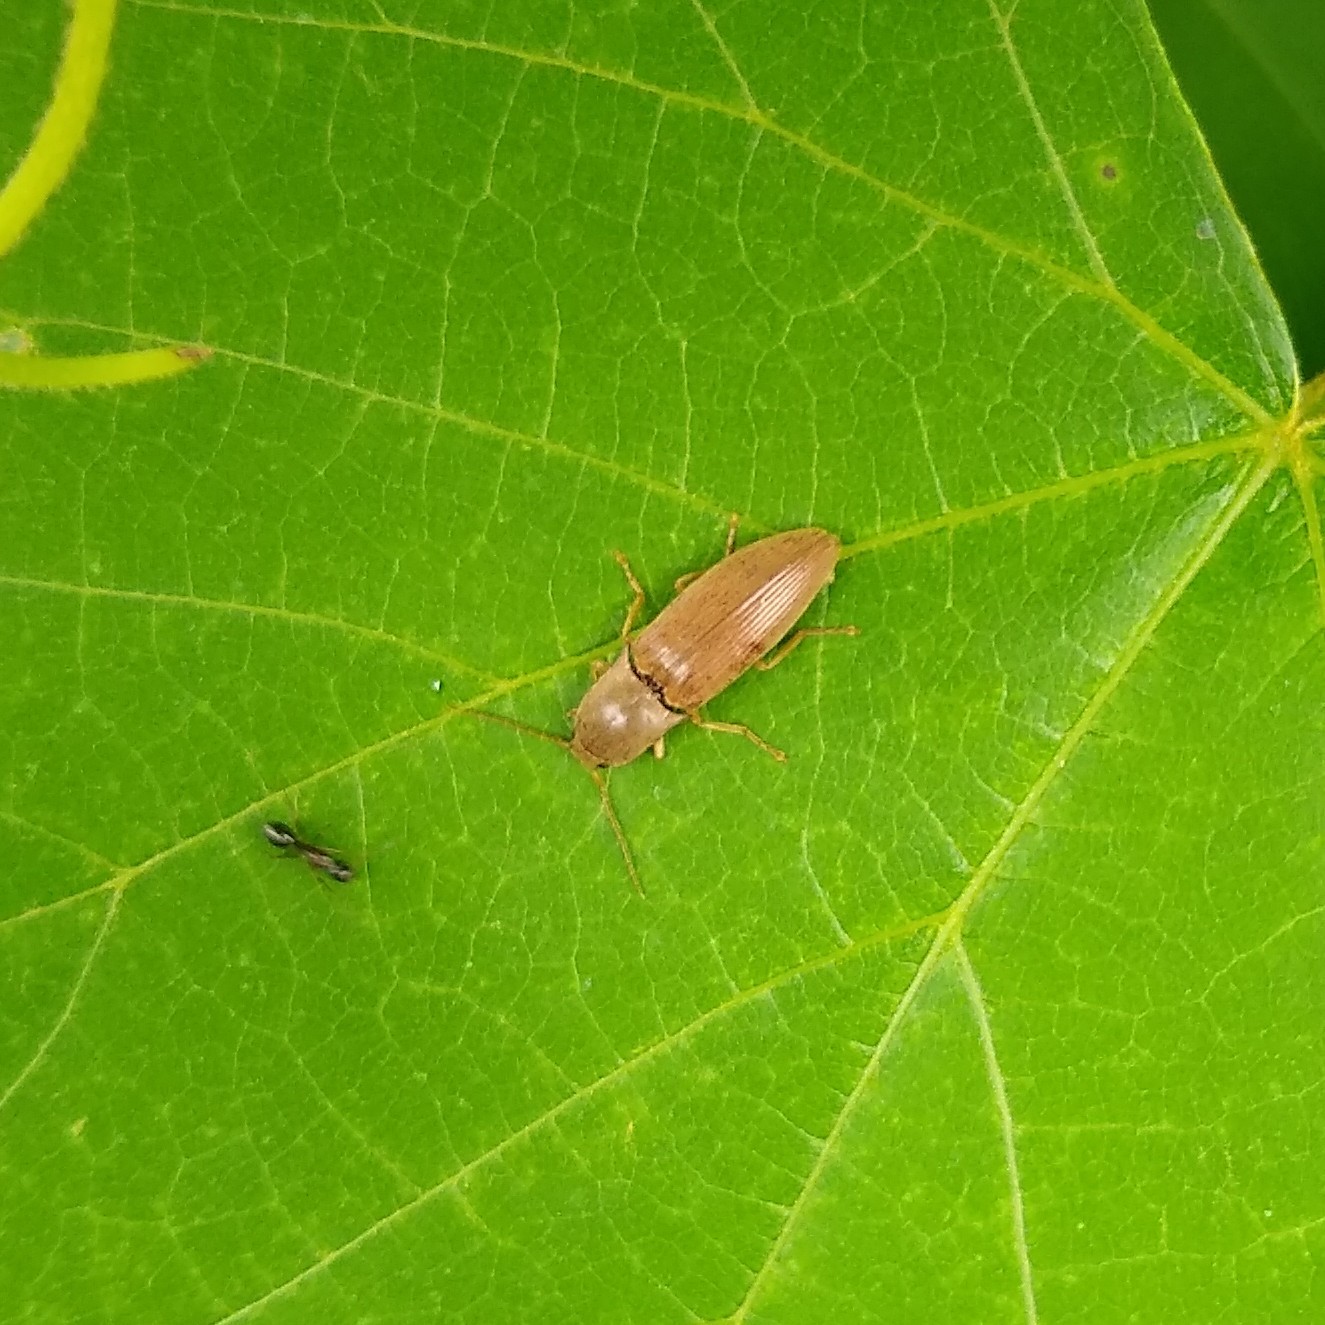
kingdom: Animalia
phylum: Arthropoda
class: Insecta
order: Coleoptera
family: Elateridae
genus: Monocrepidius
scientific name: Monocrepidius lividus
